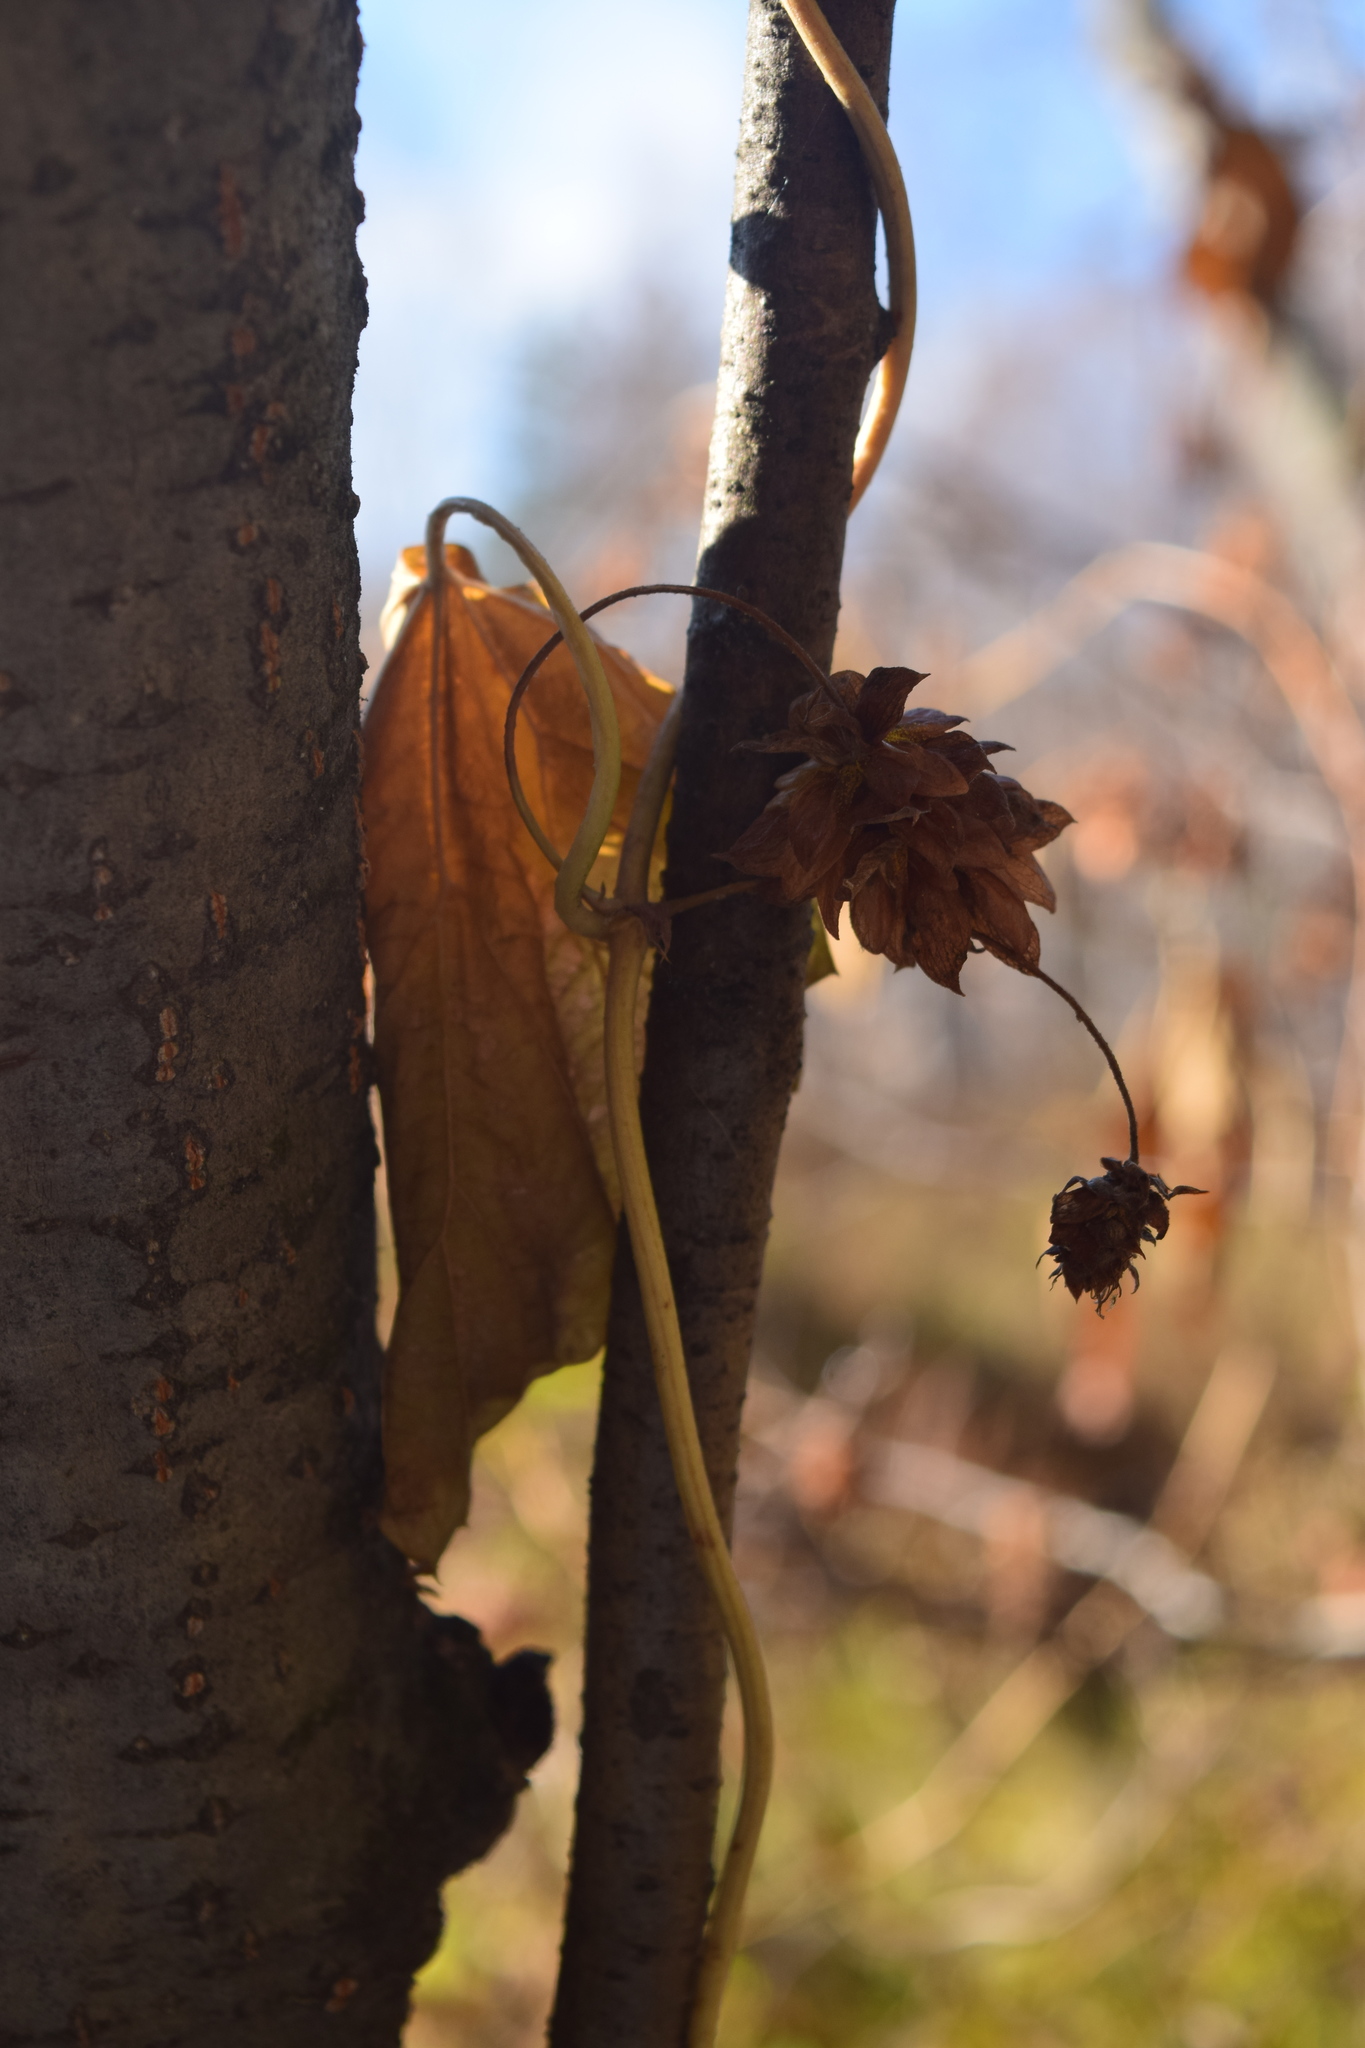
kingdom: Plantae
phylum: Tracheophyta
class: Magnoliopsida
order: Rosales
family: Cannabaceae
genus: Humulus
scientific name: Humulus lupulus
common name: Hop
